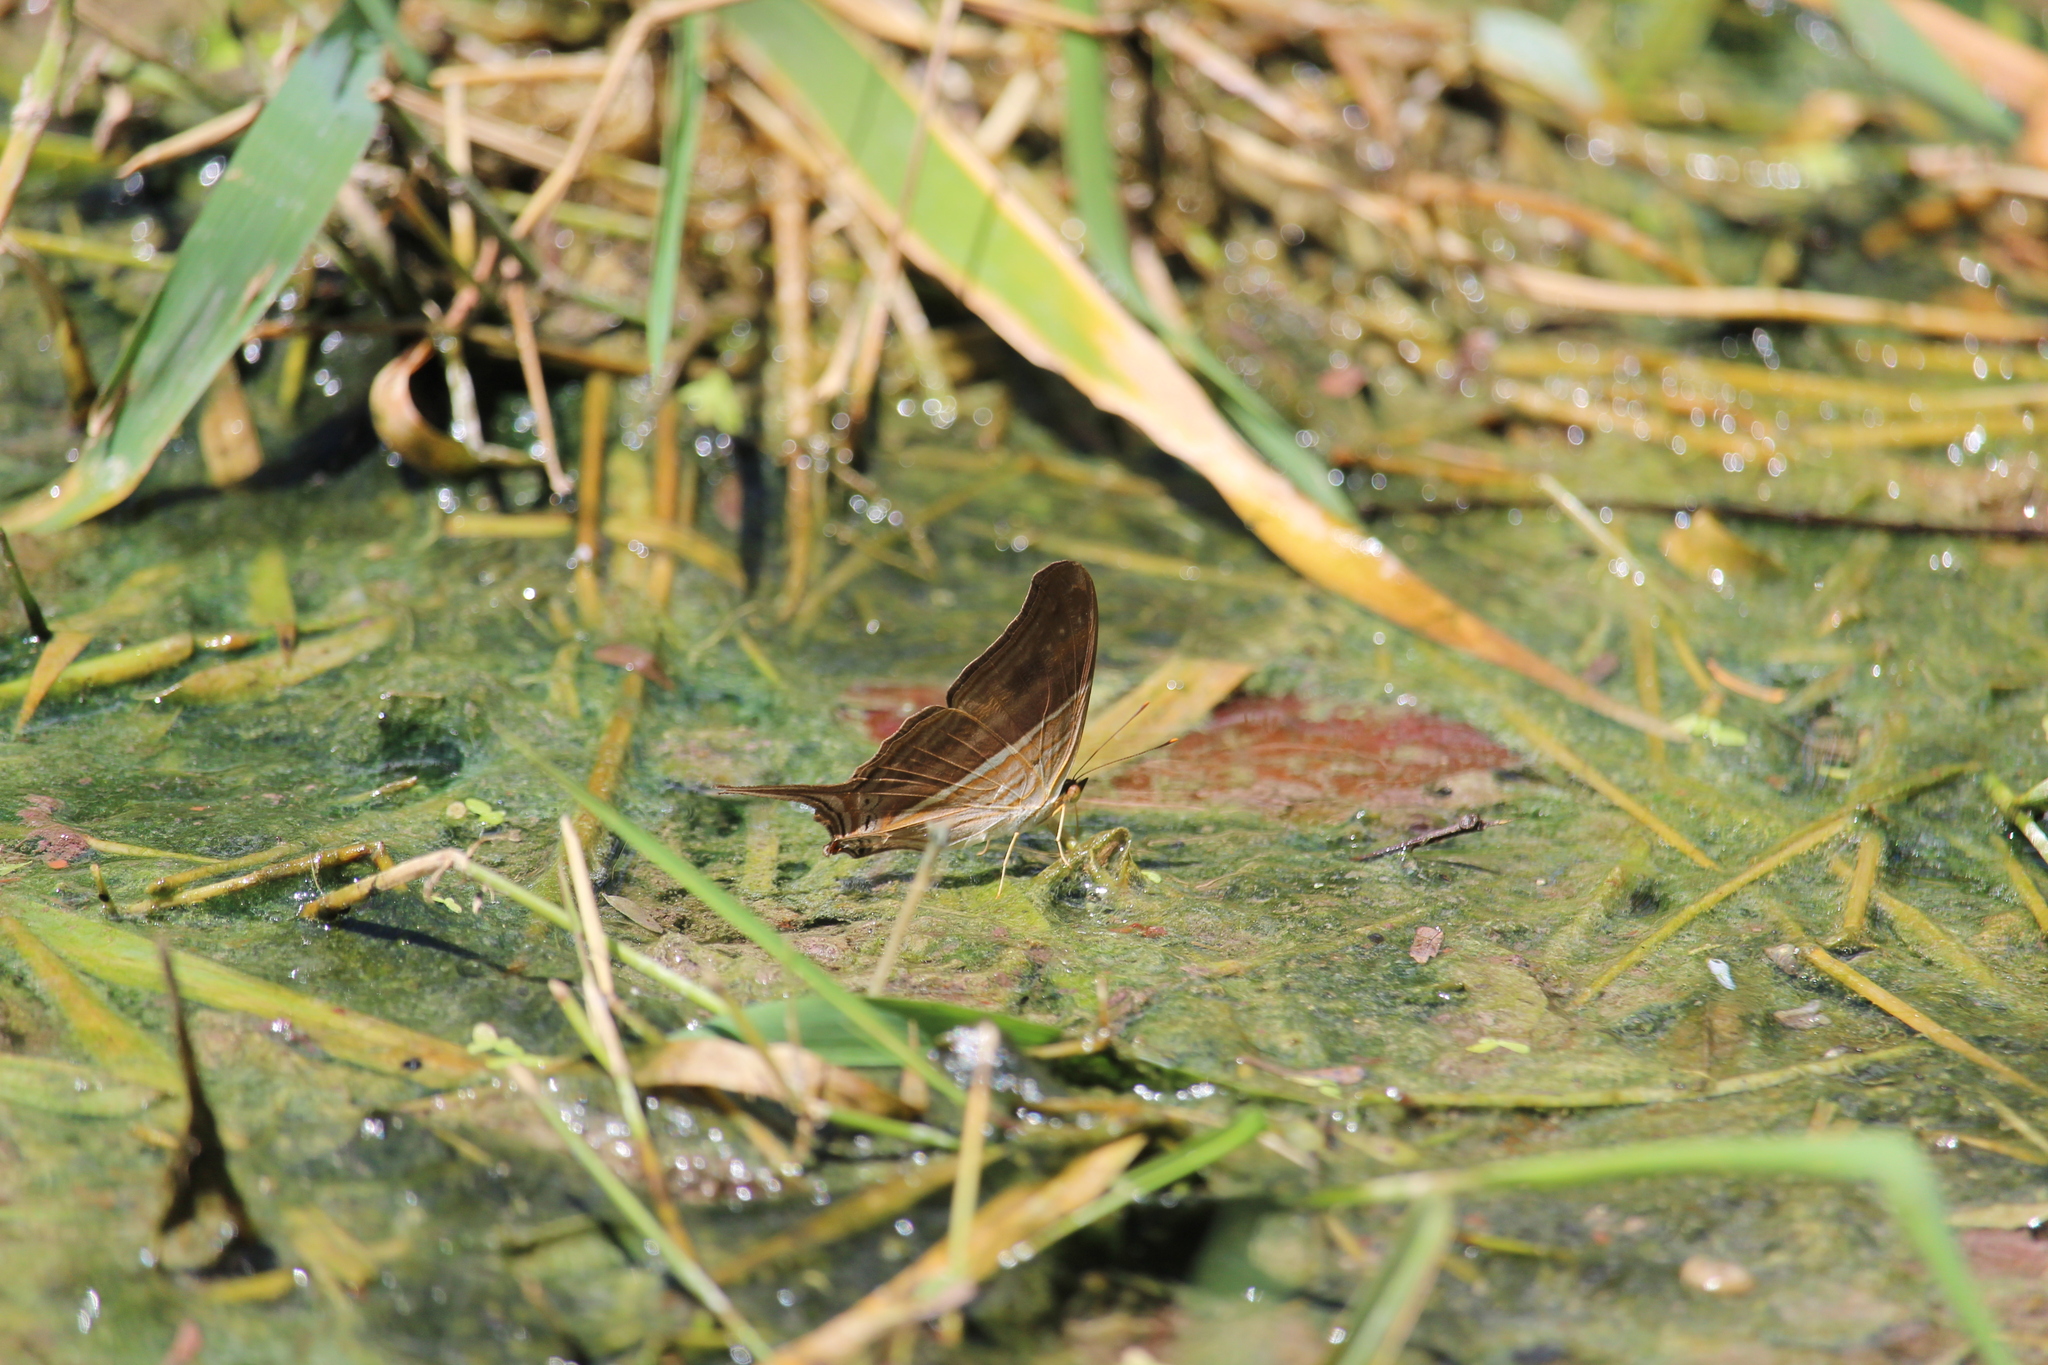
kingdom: Animalia
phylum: Arthropoda
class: Insecta
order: Lepidoptera
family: Nymphalidae
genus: Marpesia
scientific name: Marpesia chiron
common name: Many-banded daggerwing
